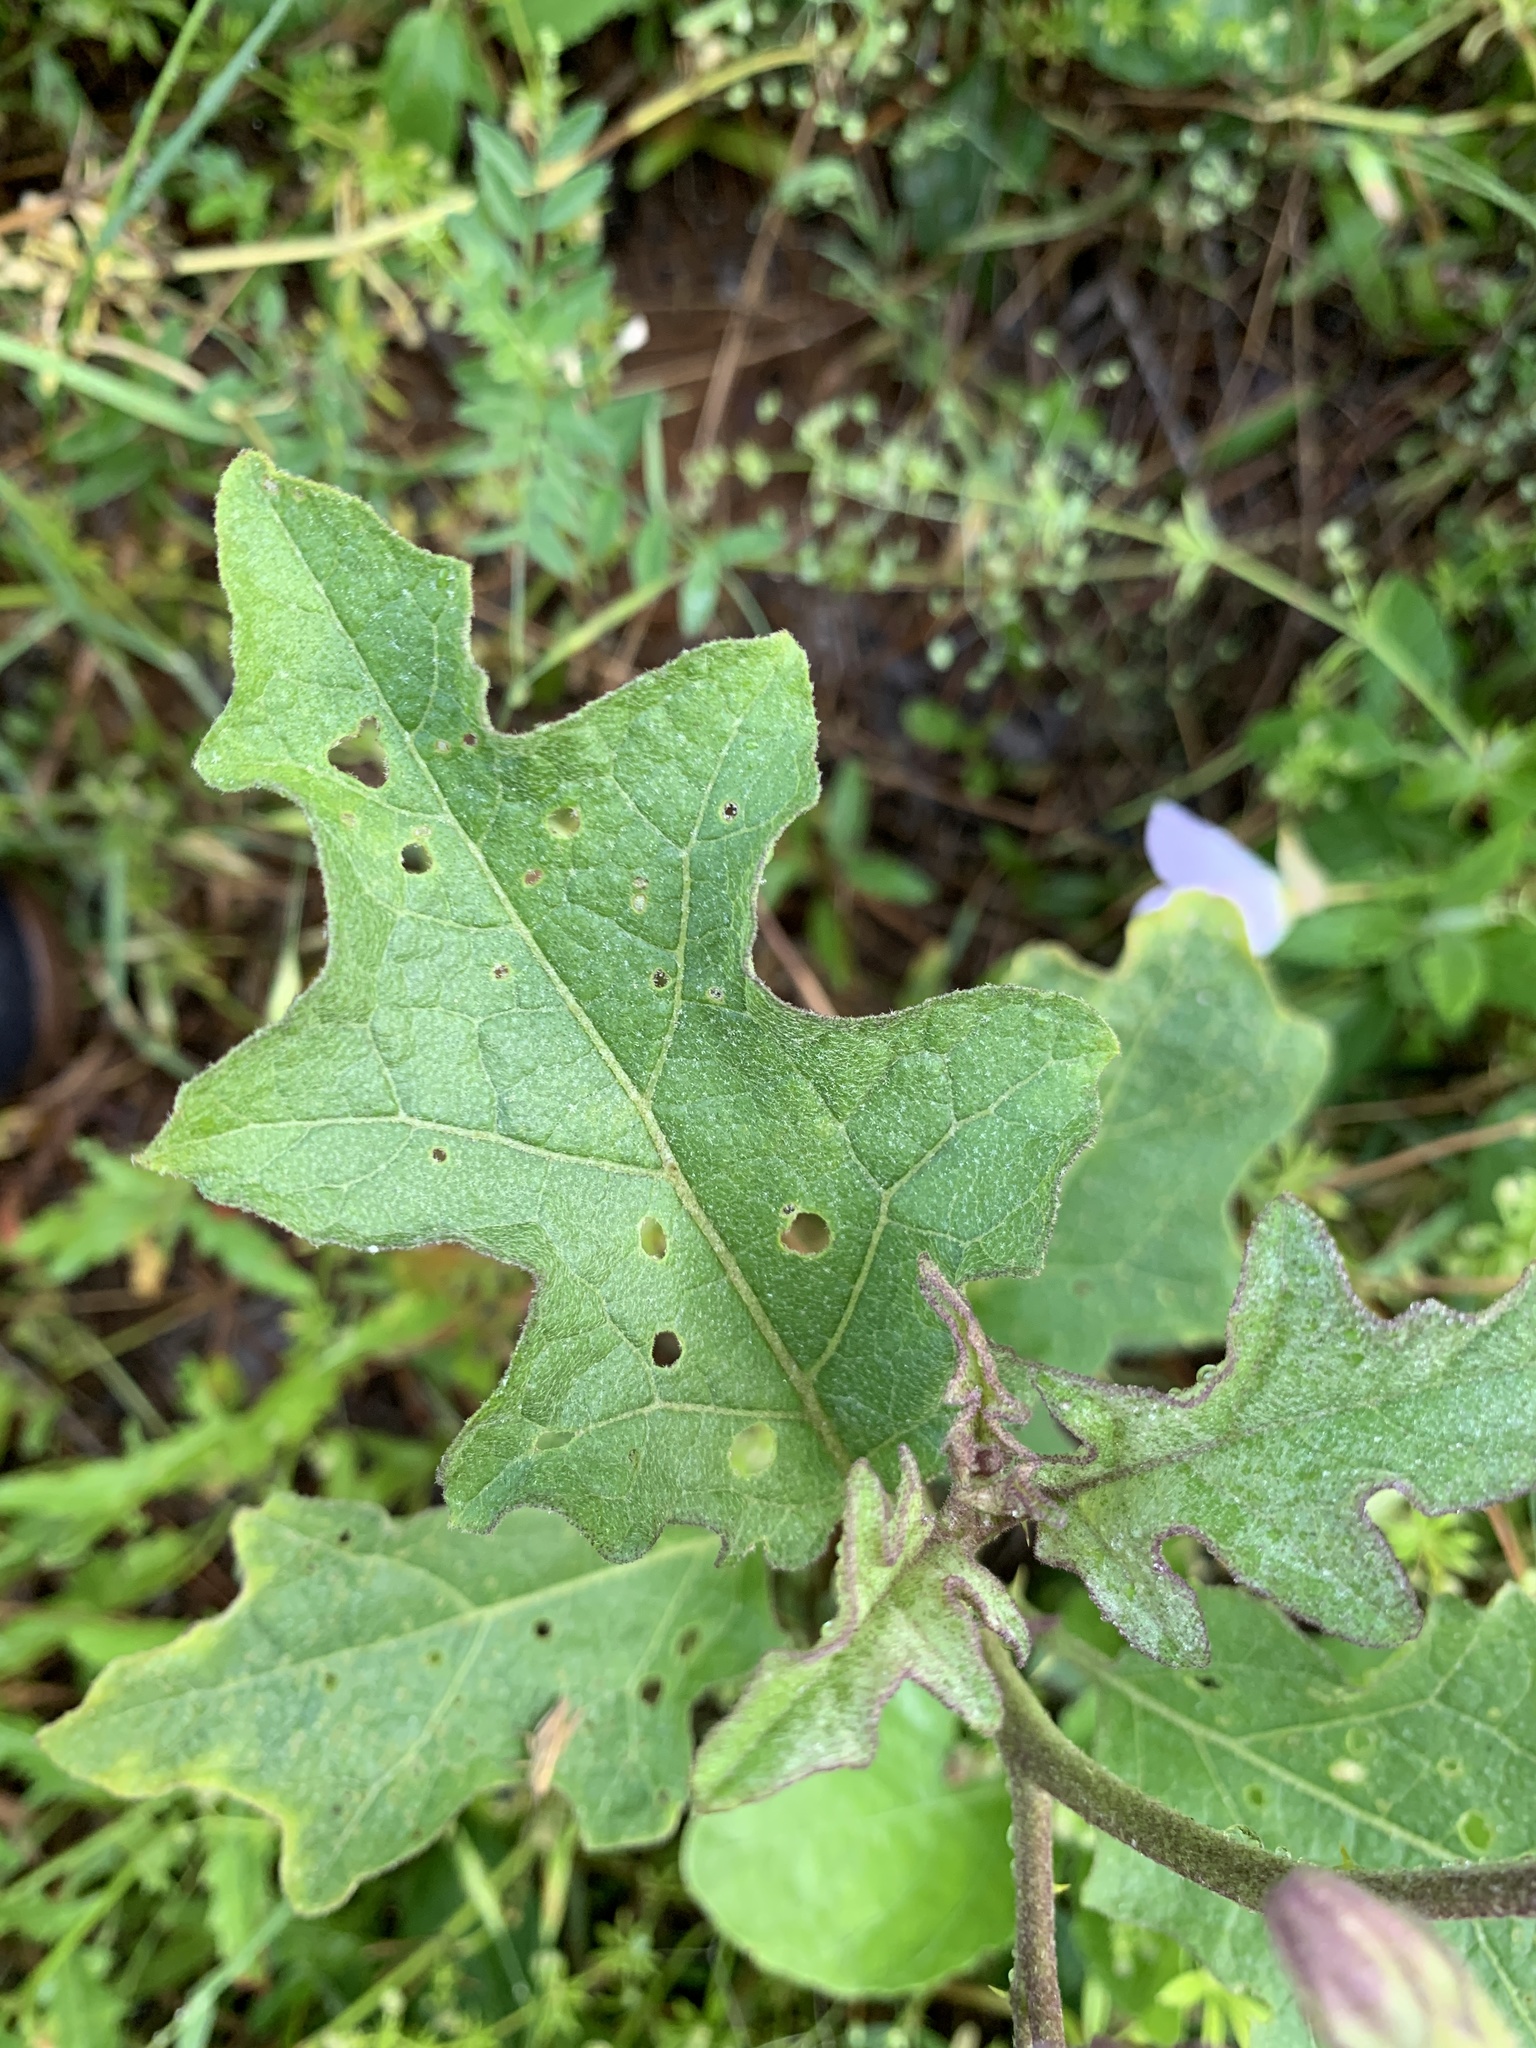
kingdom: Plantae
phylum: Tracheophyta
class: Magnoliopsida
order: Solanales
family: Solanaceae
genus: Solanum
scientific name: Solanum dimidiatum
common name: Carolina horse-nettle
